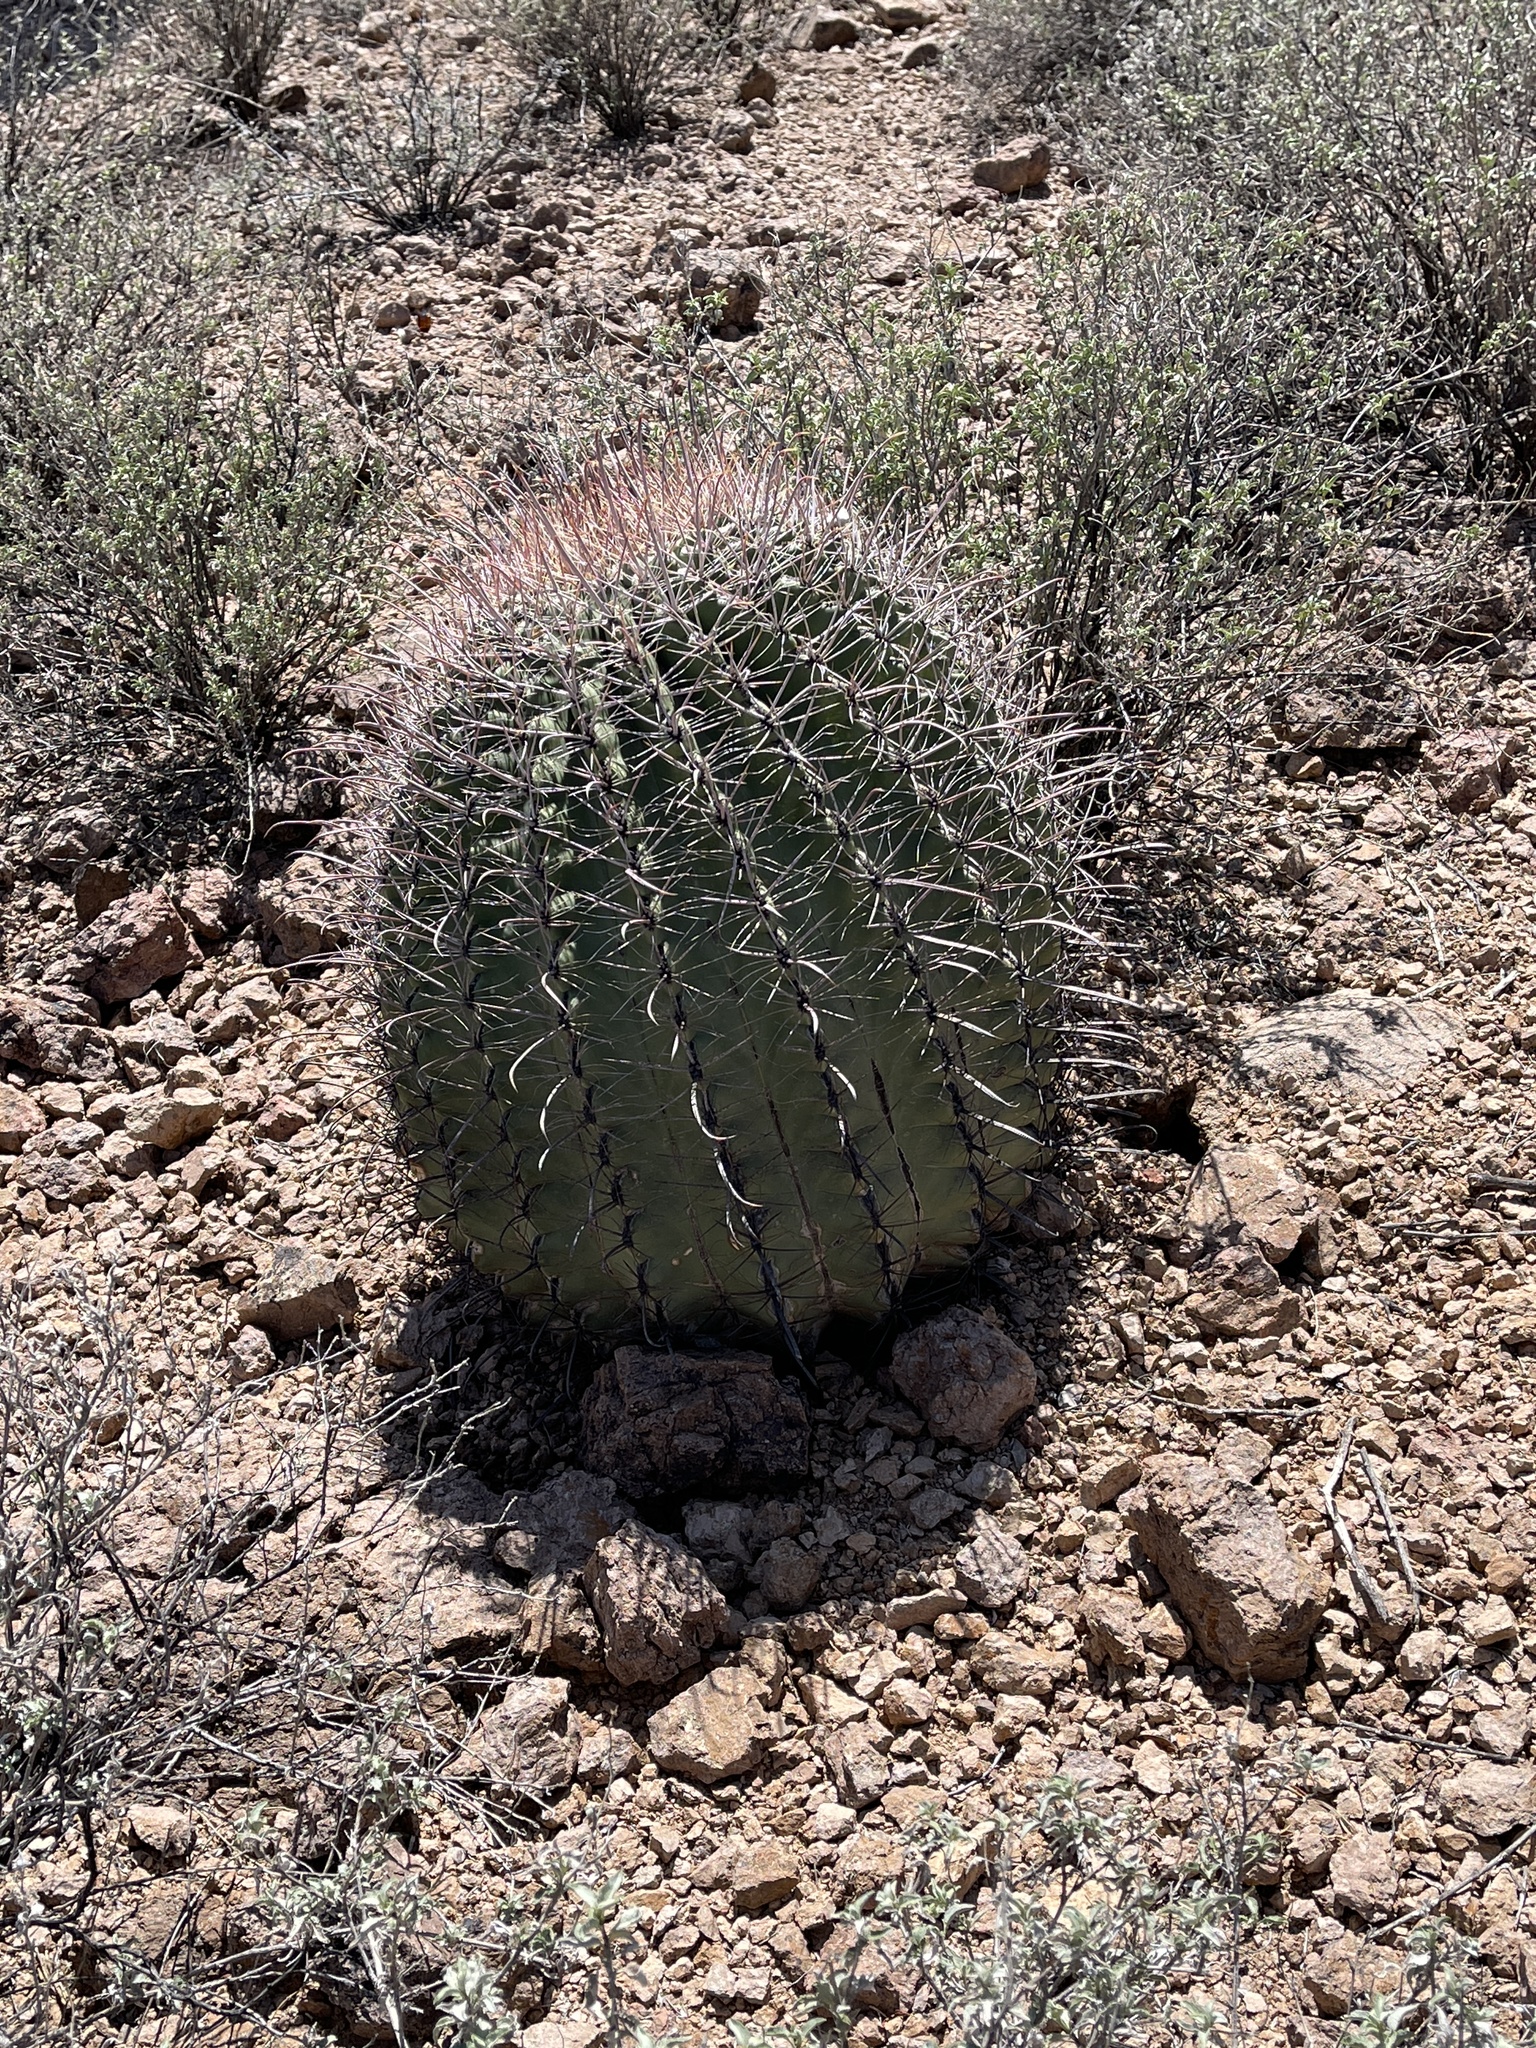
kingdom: Plantae
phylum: Tracheophyta
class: Magnoliopsida
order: Caryophyllales
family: Cactaceae
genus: Ferocactus
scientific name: Ferocactus wislizeni
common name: Candy barrel cactus
